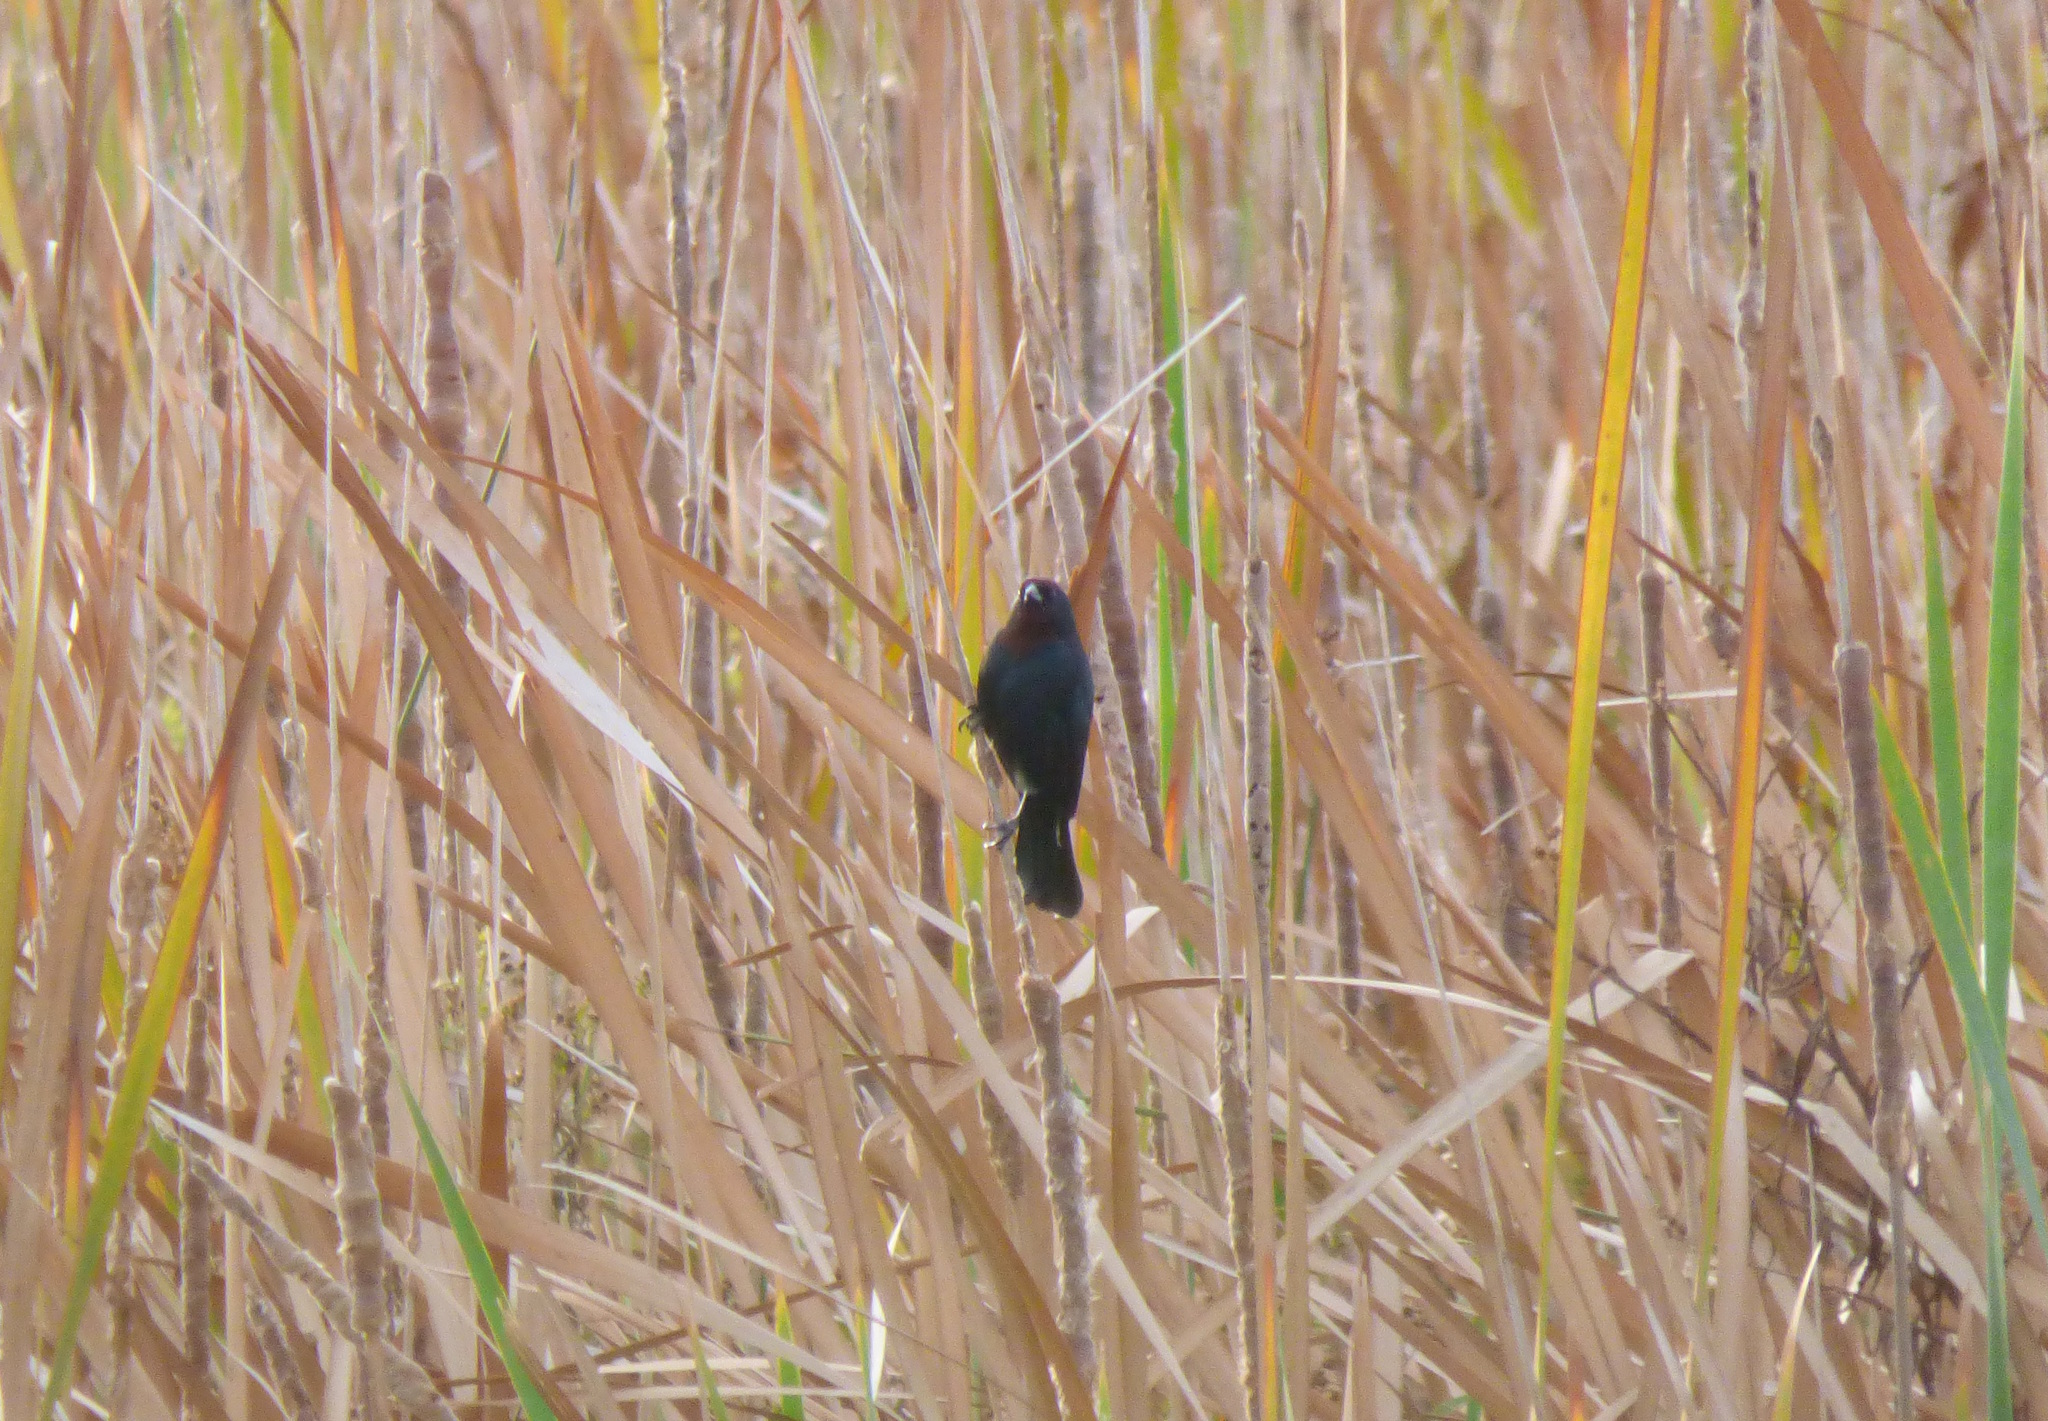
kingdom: Animalia
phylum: Chordata
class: Aves
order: Passeriformes
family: Icteridae
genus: Chrysomus
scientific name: Chrysomus ruficapillus
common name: Chestnut-capped blackbird
